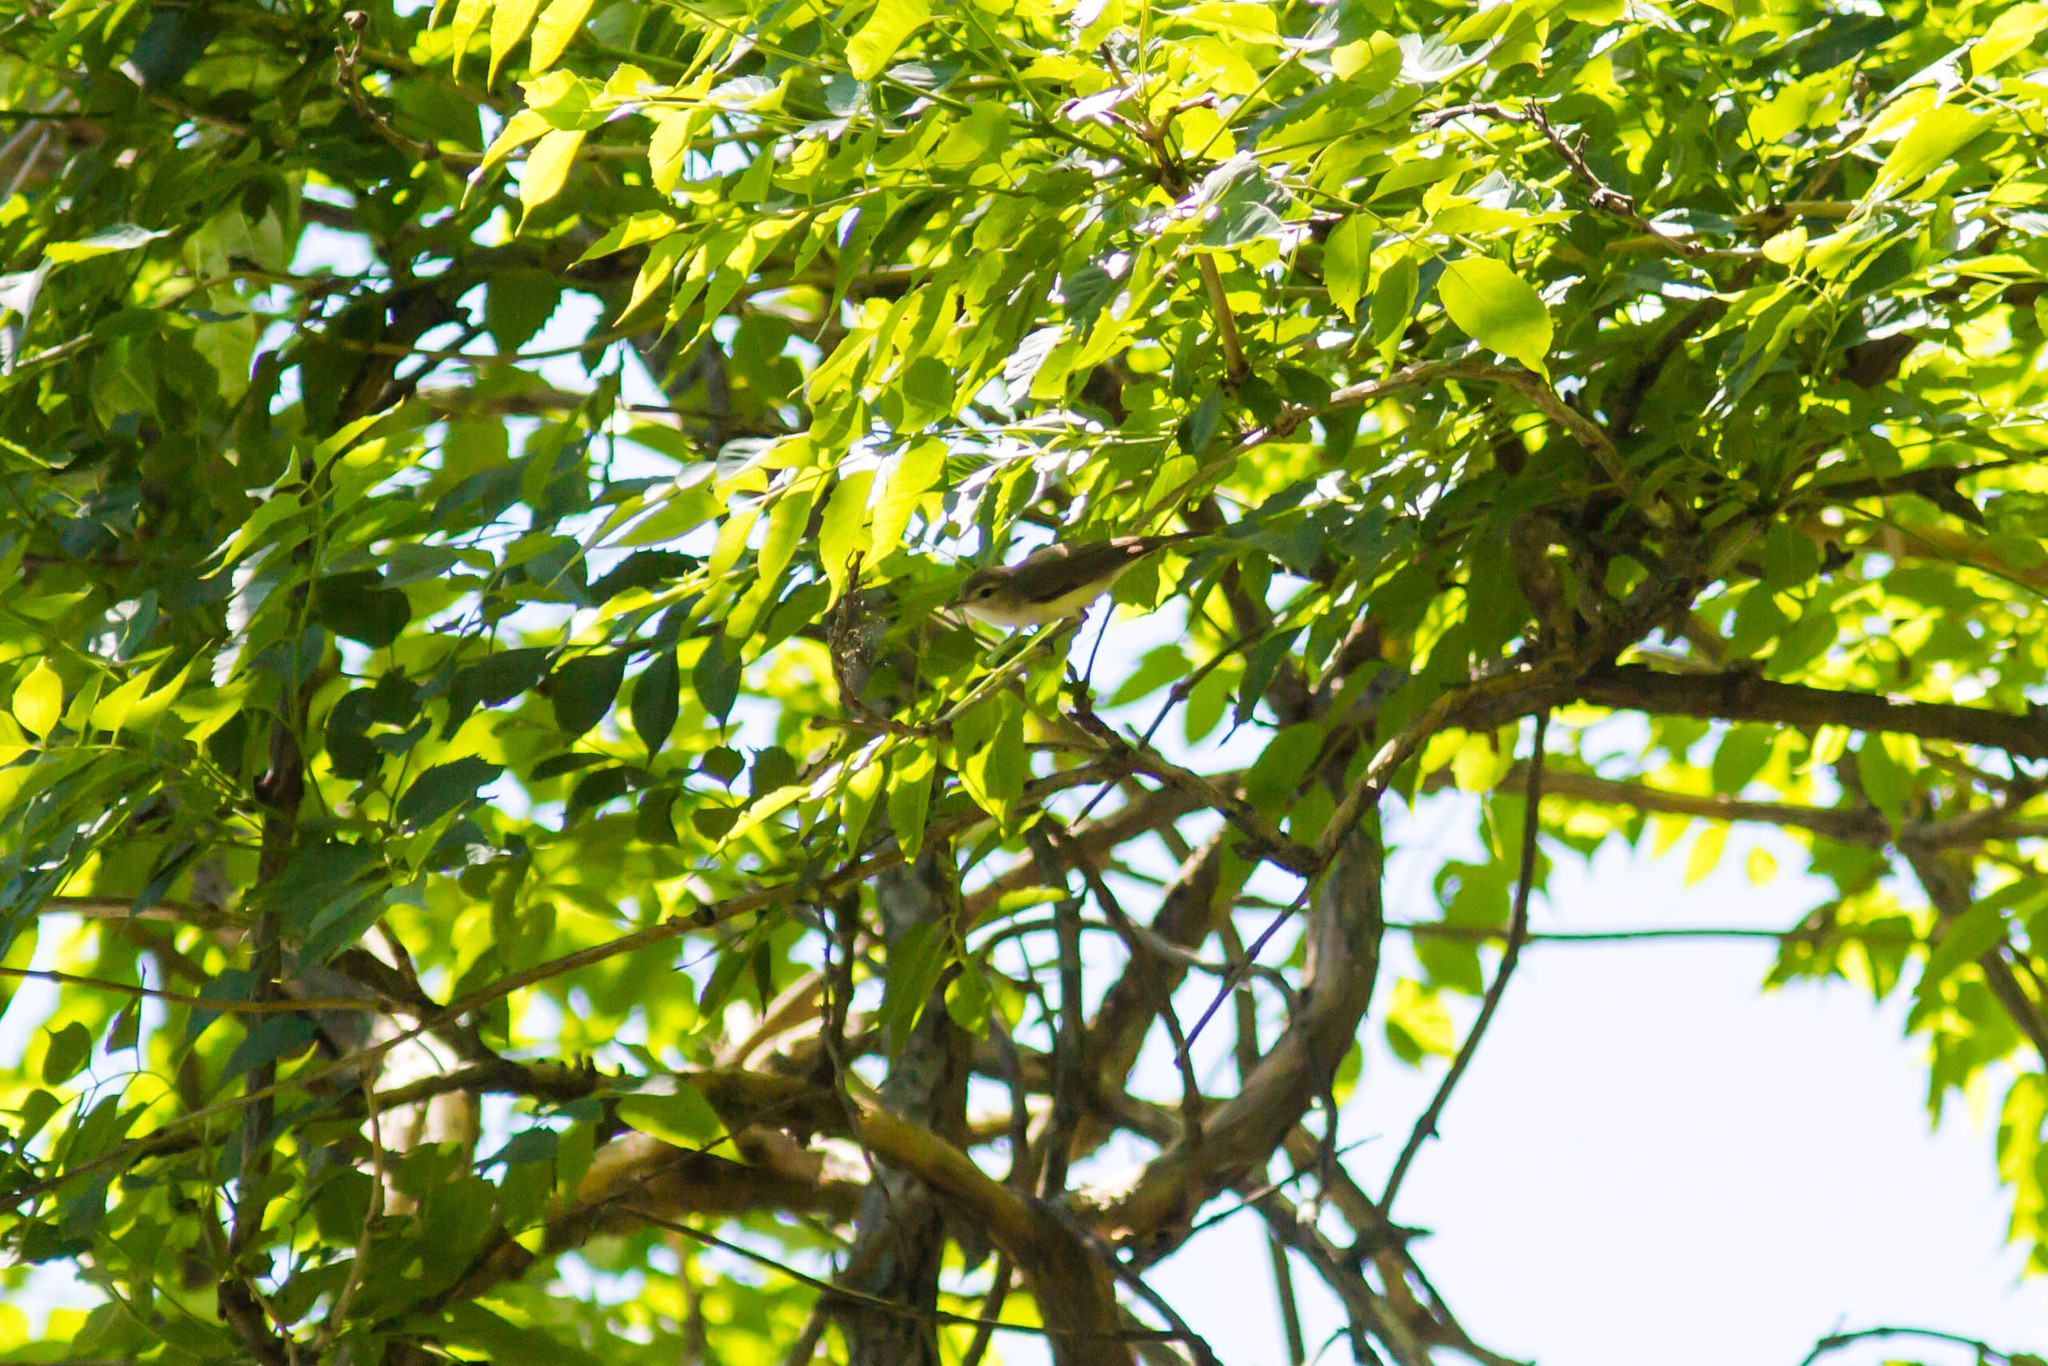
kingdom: Animalia
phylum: Chordata
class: Aves
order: Passeriformes
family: Vireonidae
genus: Vireo
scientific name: Vireo gilvus
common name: Warbling vireo
